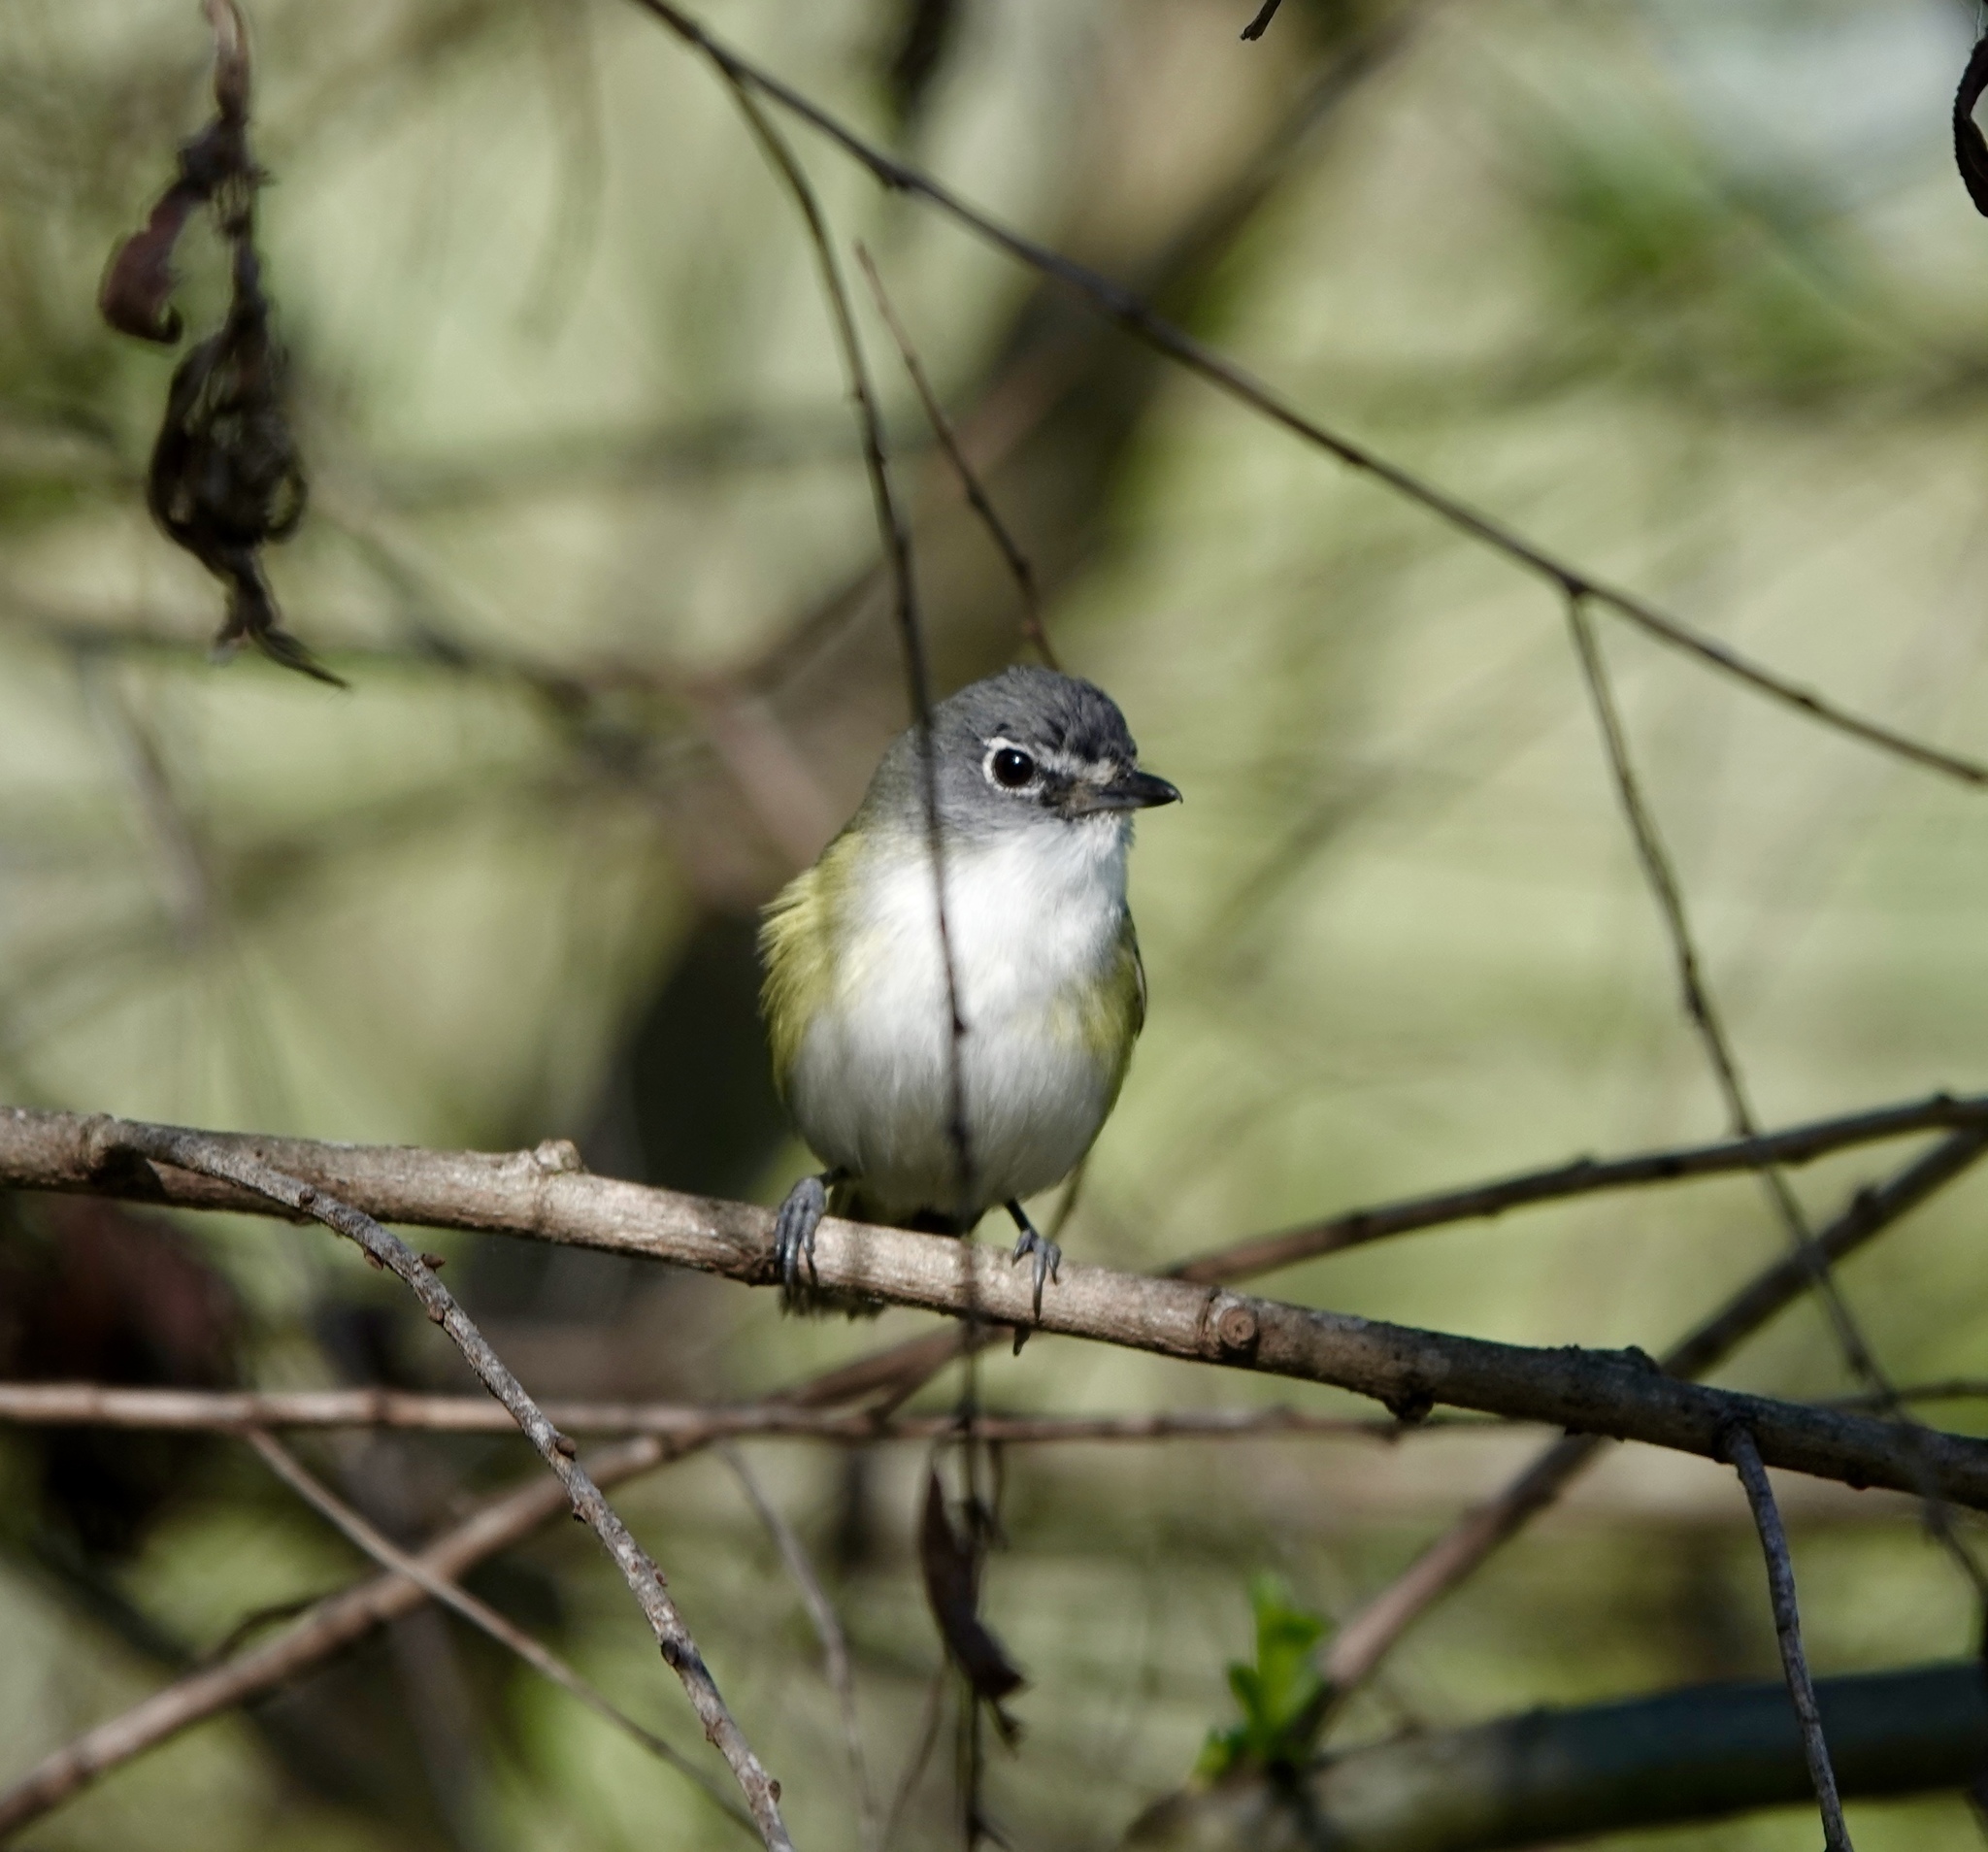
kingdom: Animalia
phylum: Chordata
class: Aves
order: Passeriformes
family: Vireonidae
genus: Vireo
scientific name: Vireo solitarius
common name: Blue-headed vireo
